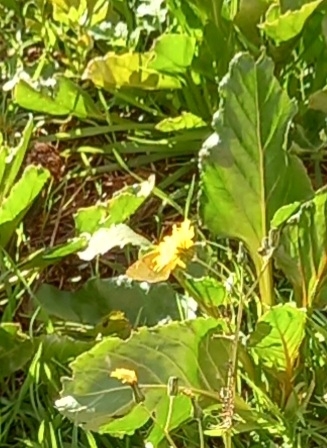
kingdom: Animalia
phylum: Arthropoda
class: Insecta
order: Lepidoptera
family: Pieridae
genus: Colias
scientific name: Colias croceus
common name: Clouded yellow
